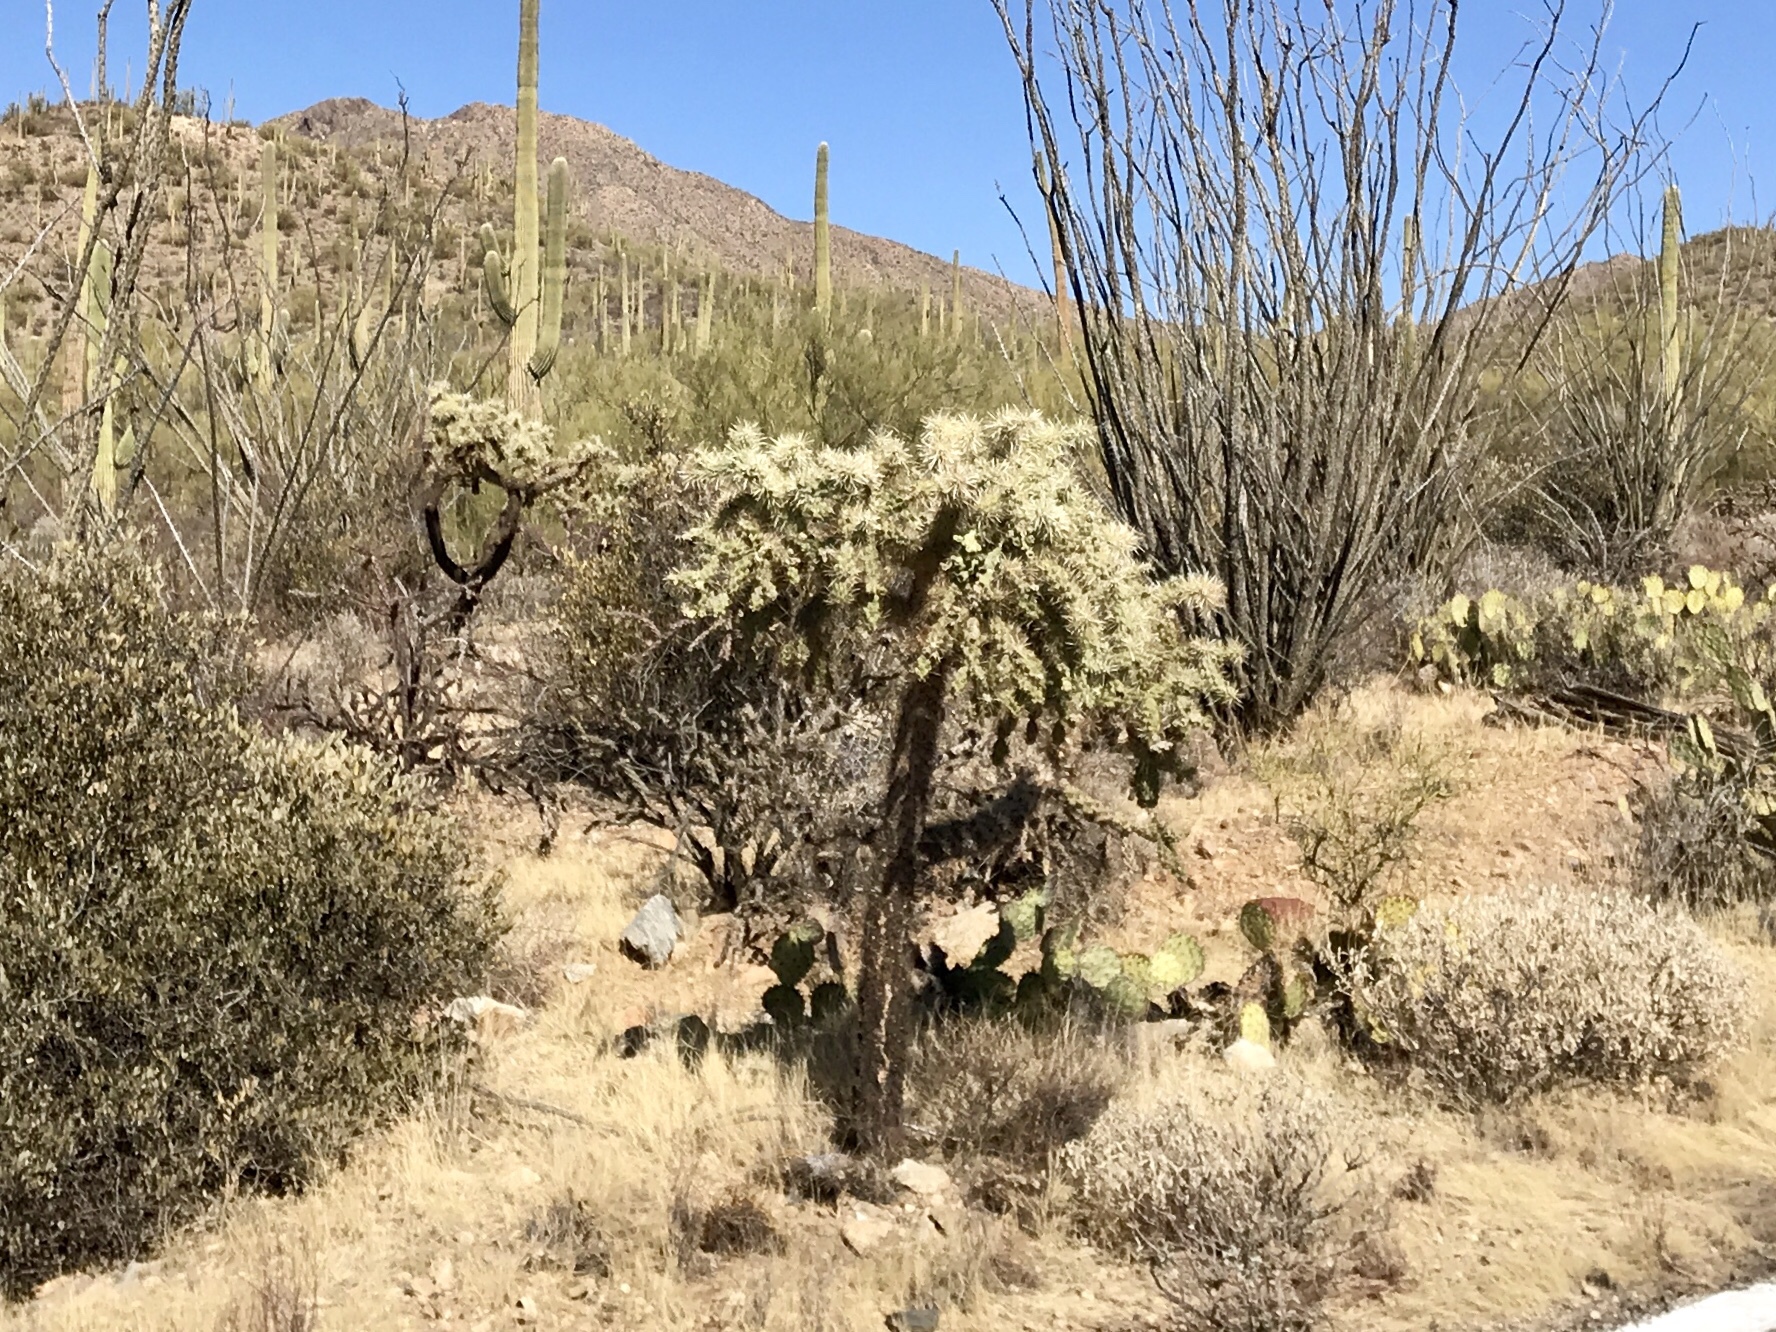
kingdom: Plantae
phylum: Tracheophyta
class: Magnoliopsida
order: Caryophyllales
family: Cactaceae
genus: Cylindropuntia
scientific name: Cylindropuntia fulgida
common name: Jumping cholla
